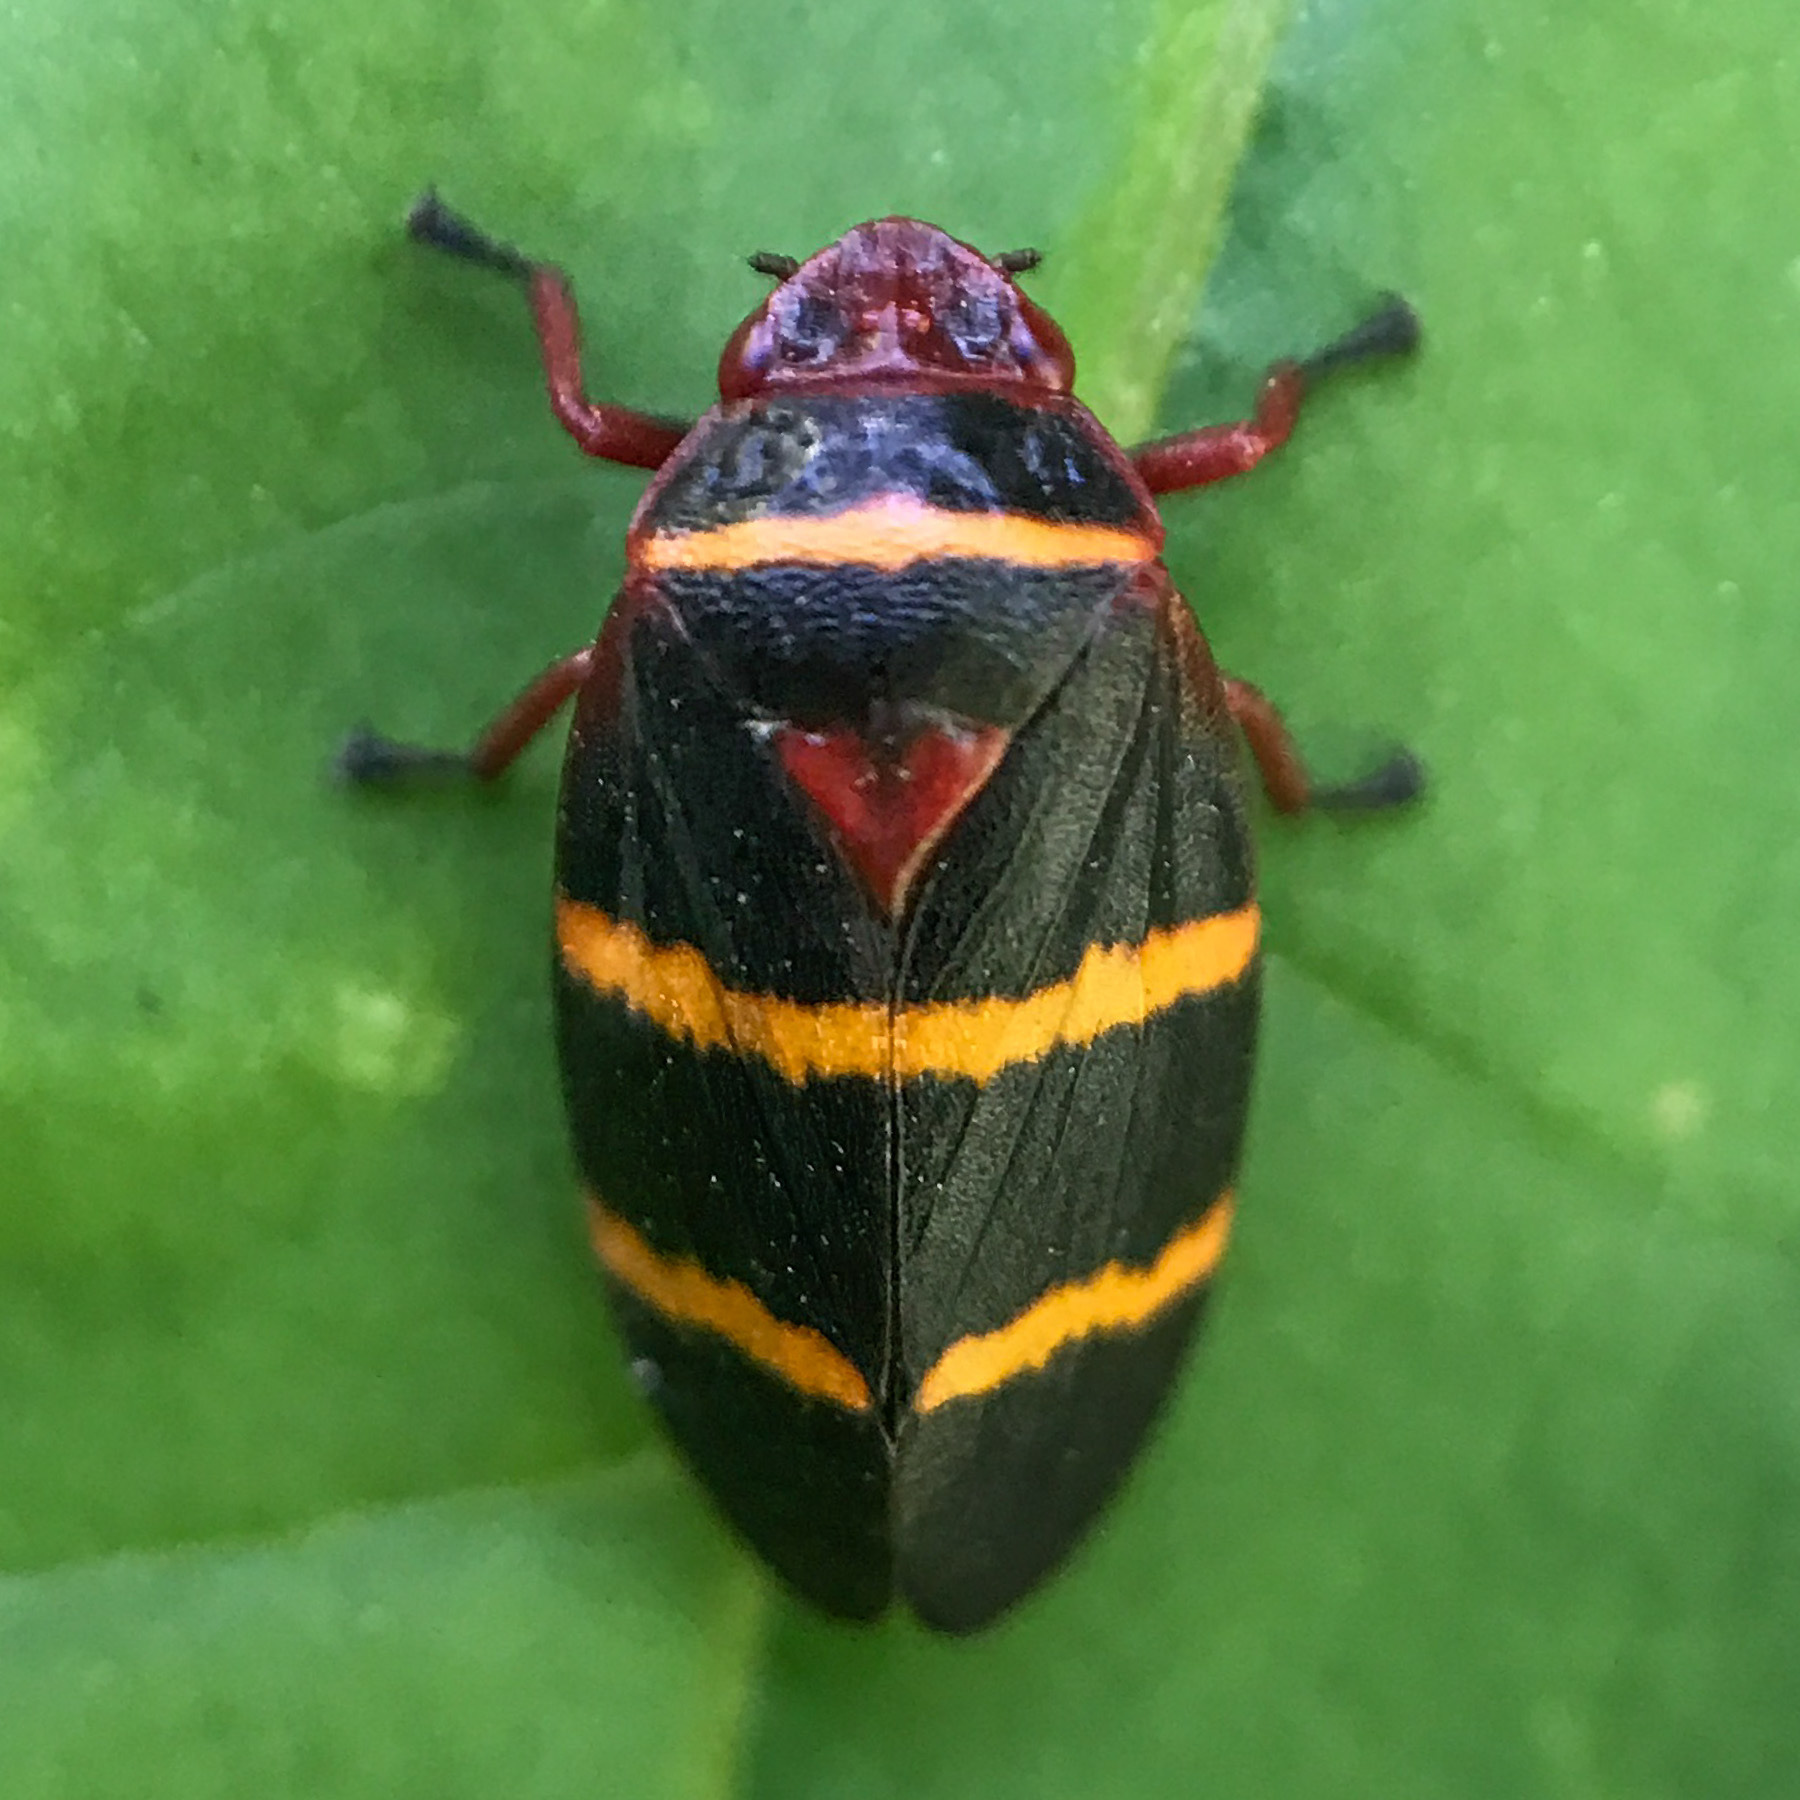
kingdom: Animalia
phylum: Arthropoda
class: Insecta
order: Hemiptera
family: Cercopidae
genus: Prosapia
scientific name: Prosapia bicincta
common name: Twolined spittlebug
